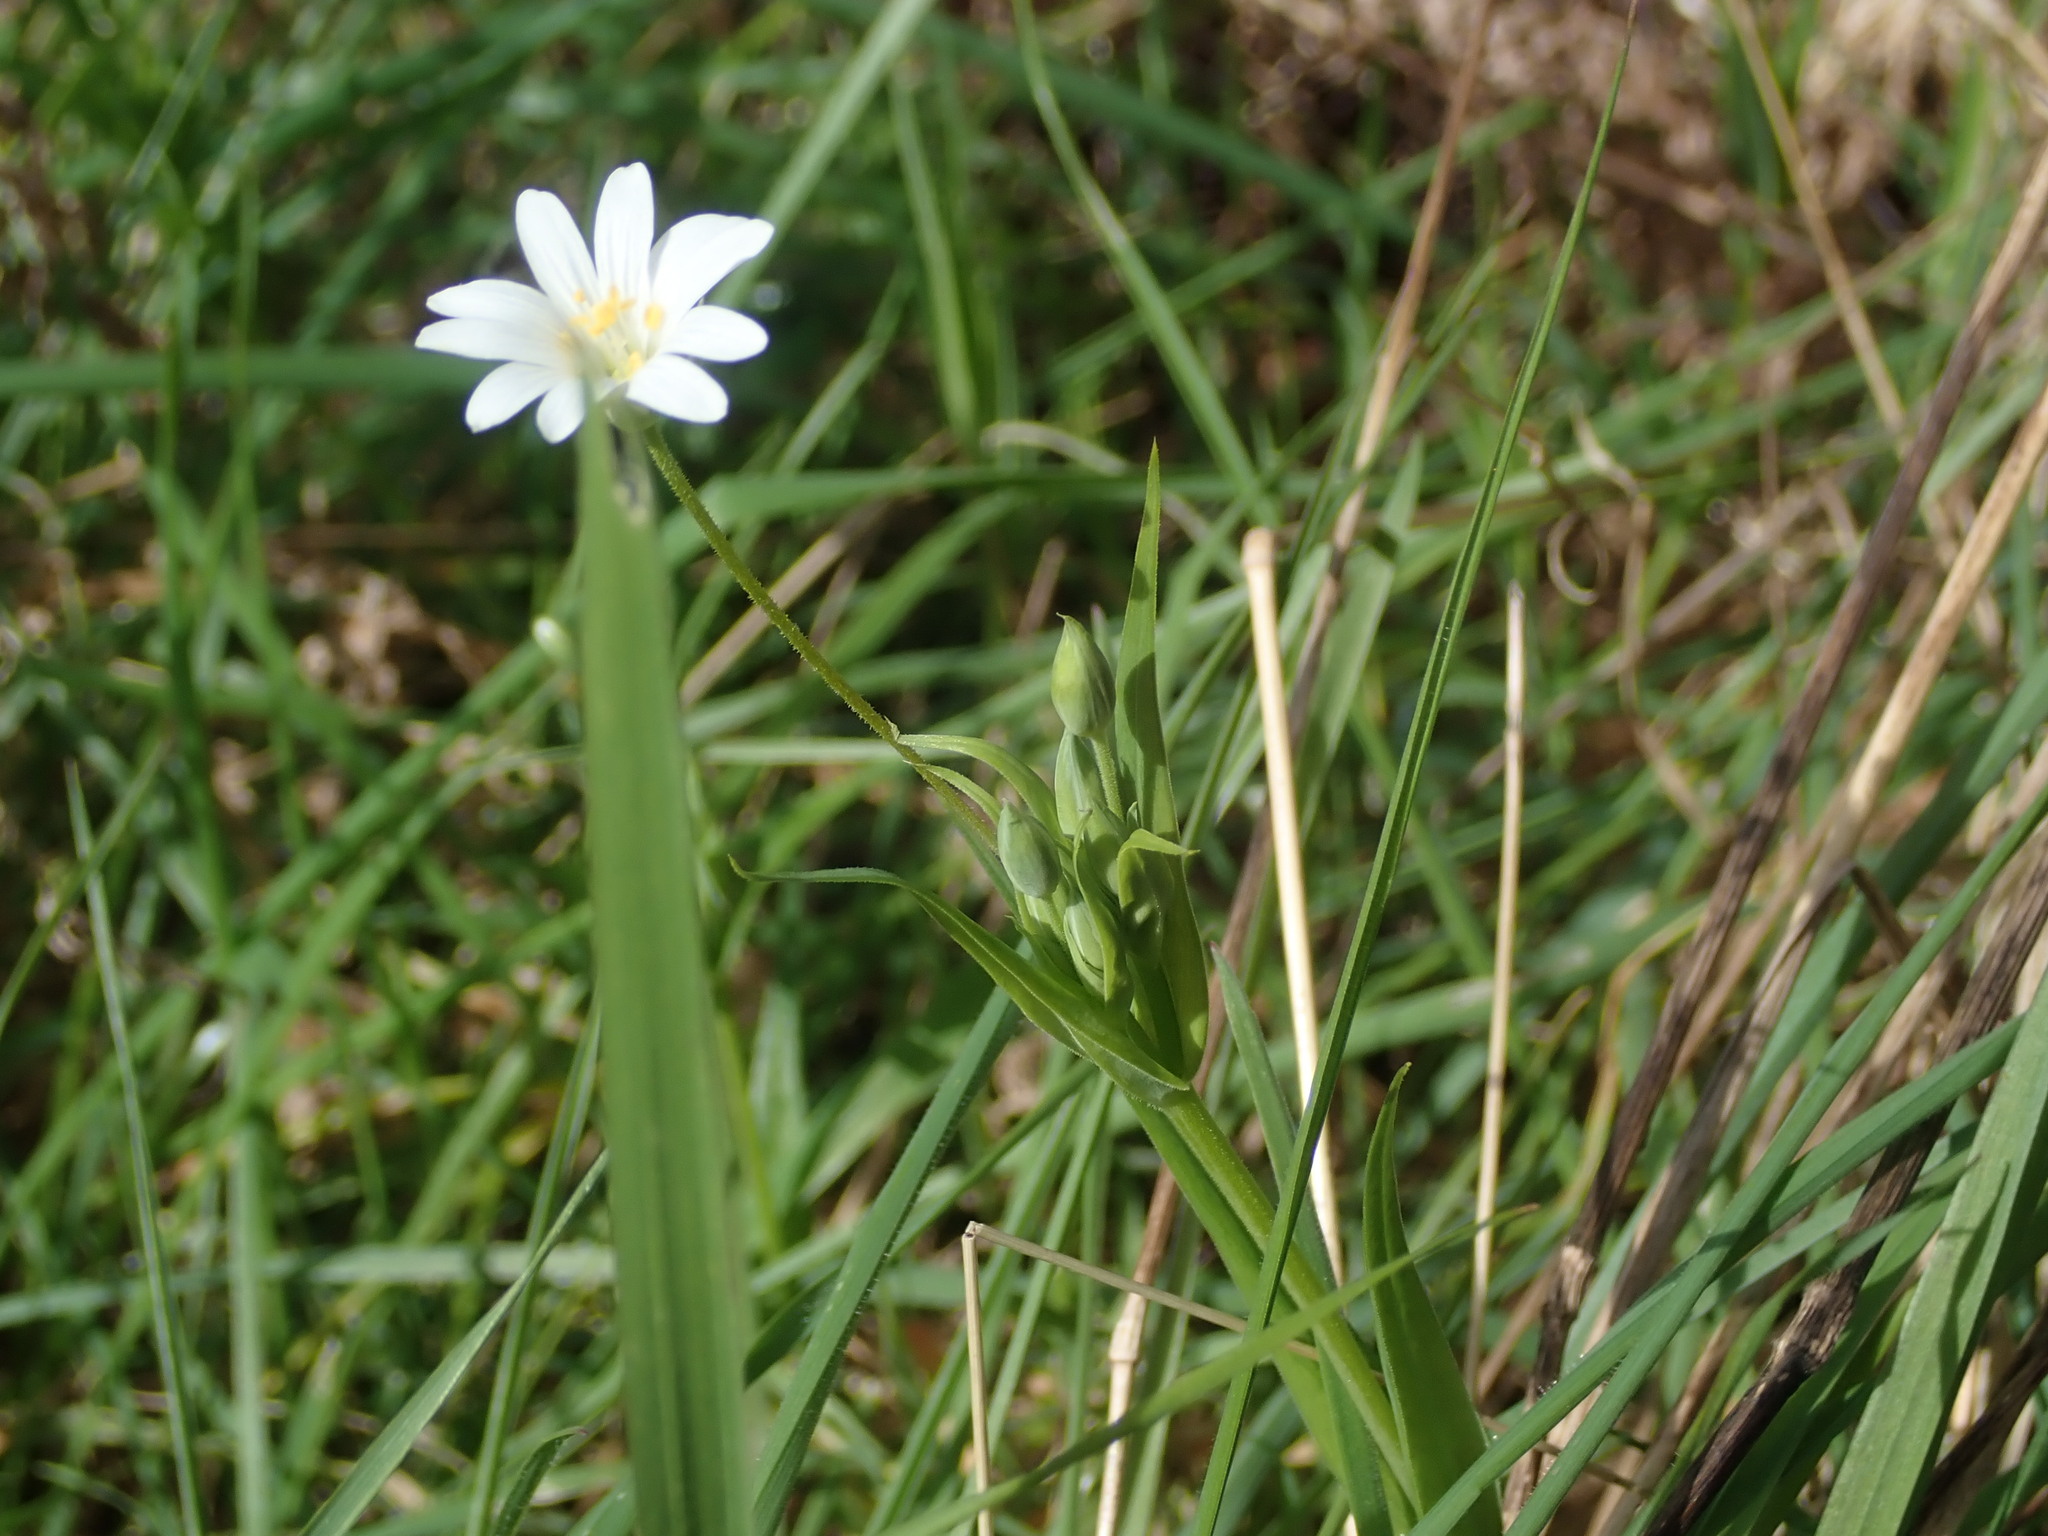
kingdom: Plantae
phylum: Tracheophyta
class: Magnoliopsida
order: Caryophyllales
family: Caryophyllaceae
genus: Rabelera
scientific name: Rabelera holostea
